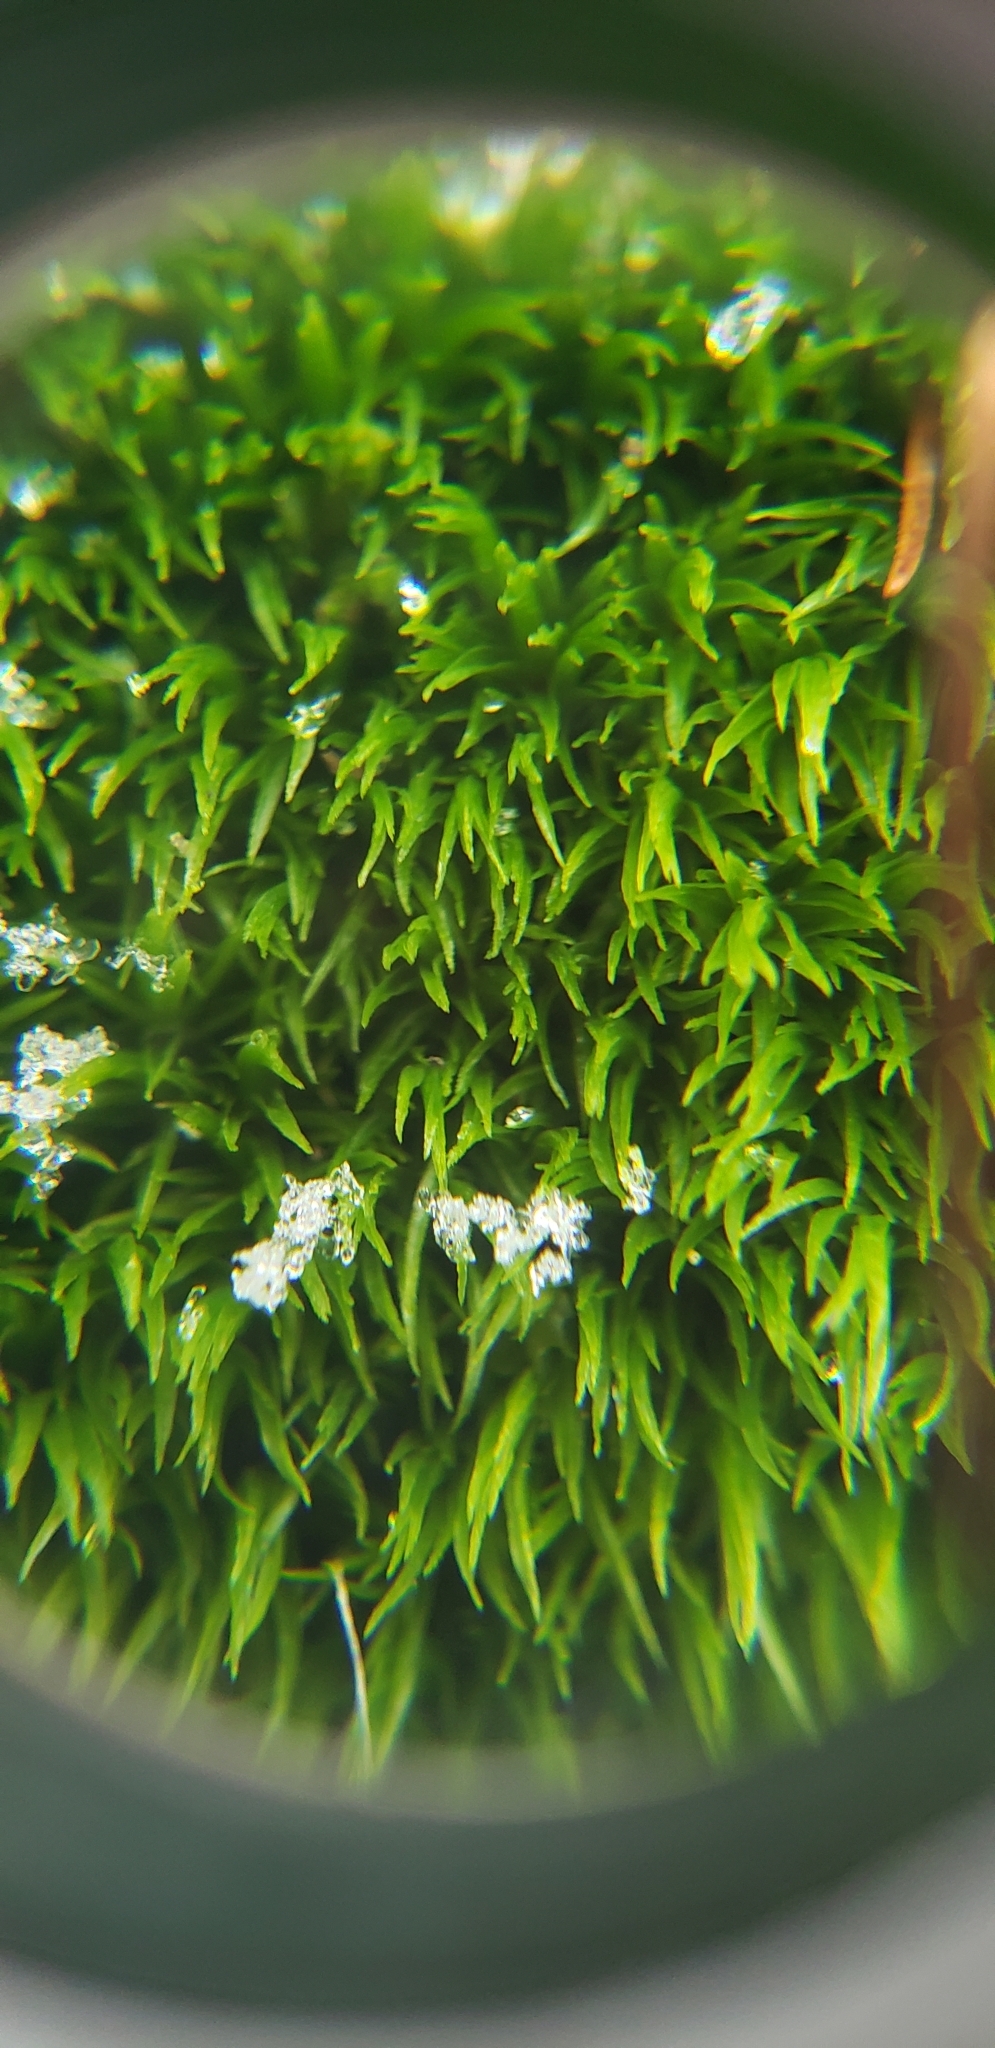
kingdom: Plantae
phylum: Bryophyta
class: Bryopsida
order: Dicranales
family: Dicranaceae
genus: Orthodicranum
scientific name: Orthodicranum flagellare
